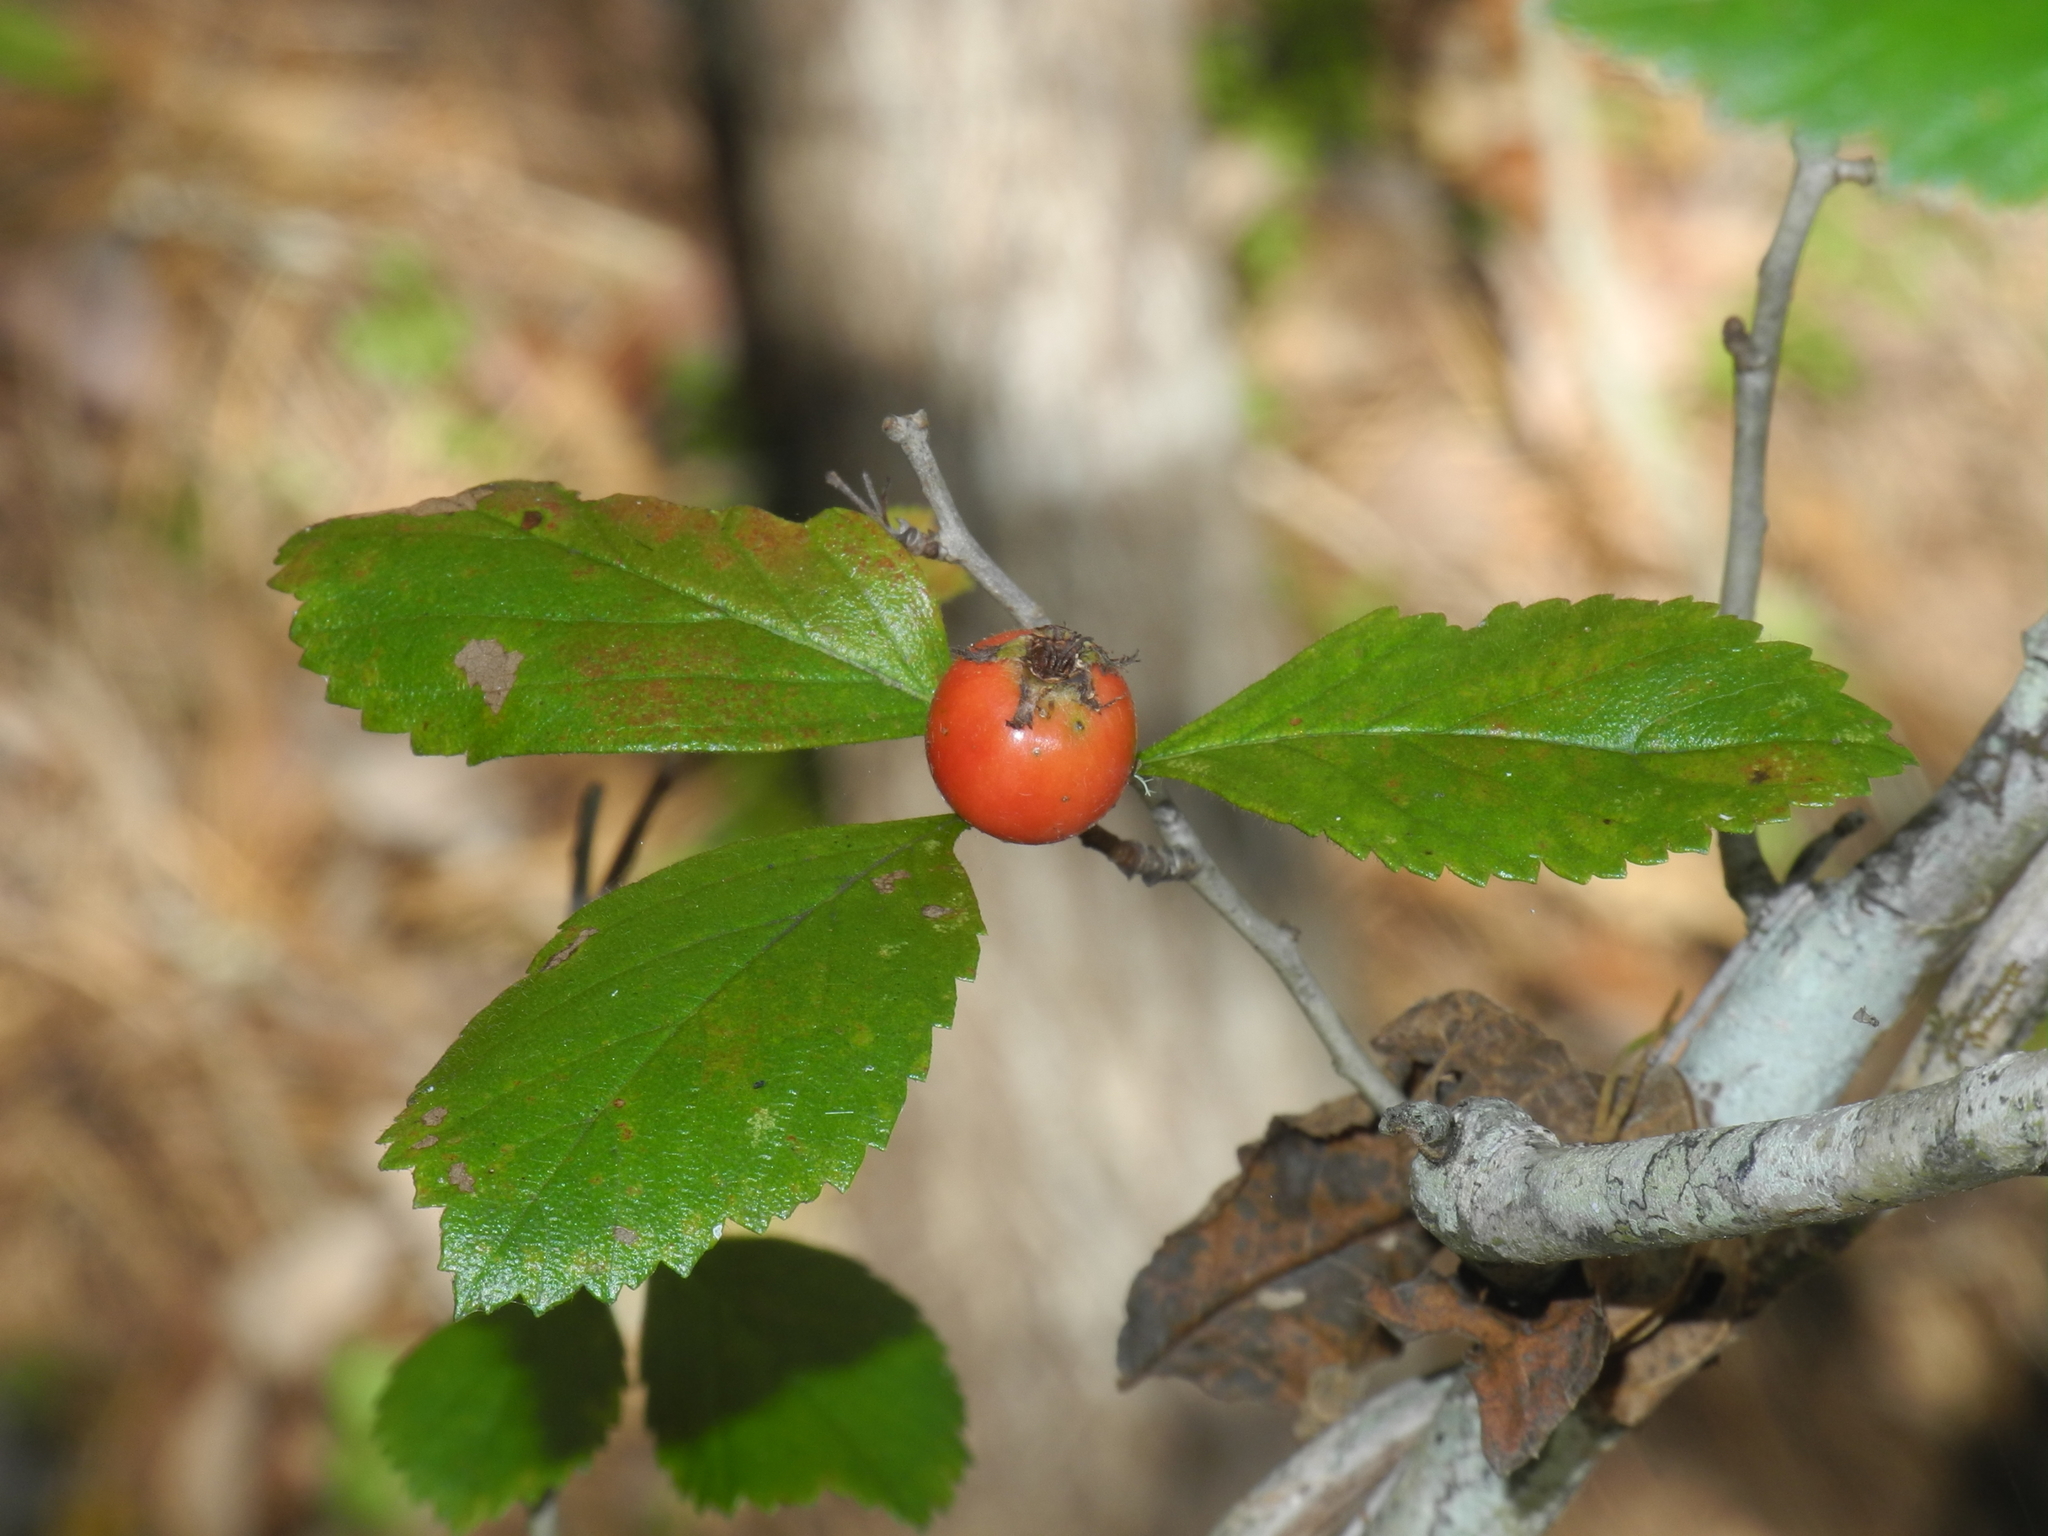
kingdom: Plantae
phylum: Tracheophyta
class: Magnoliopsida
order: Rosales
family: Rosaceae
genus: Crataegus
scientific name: Crataegus punctata
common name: Dotted hawthorn
